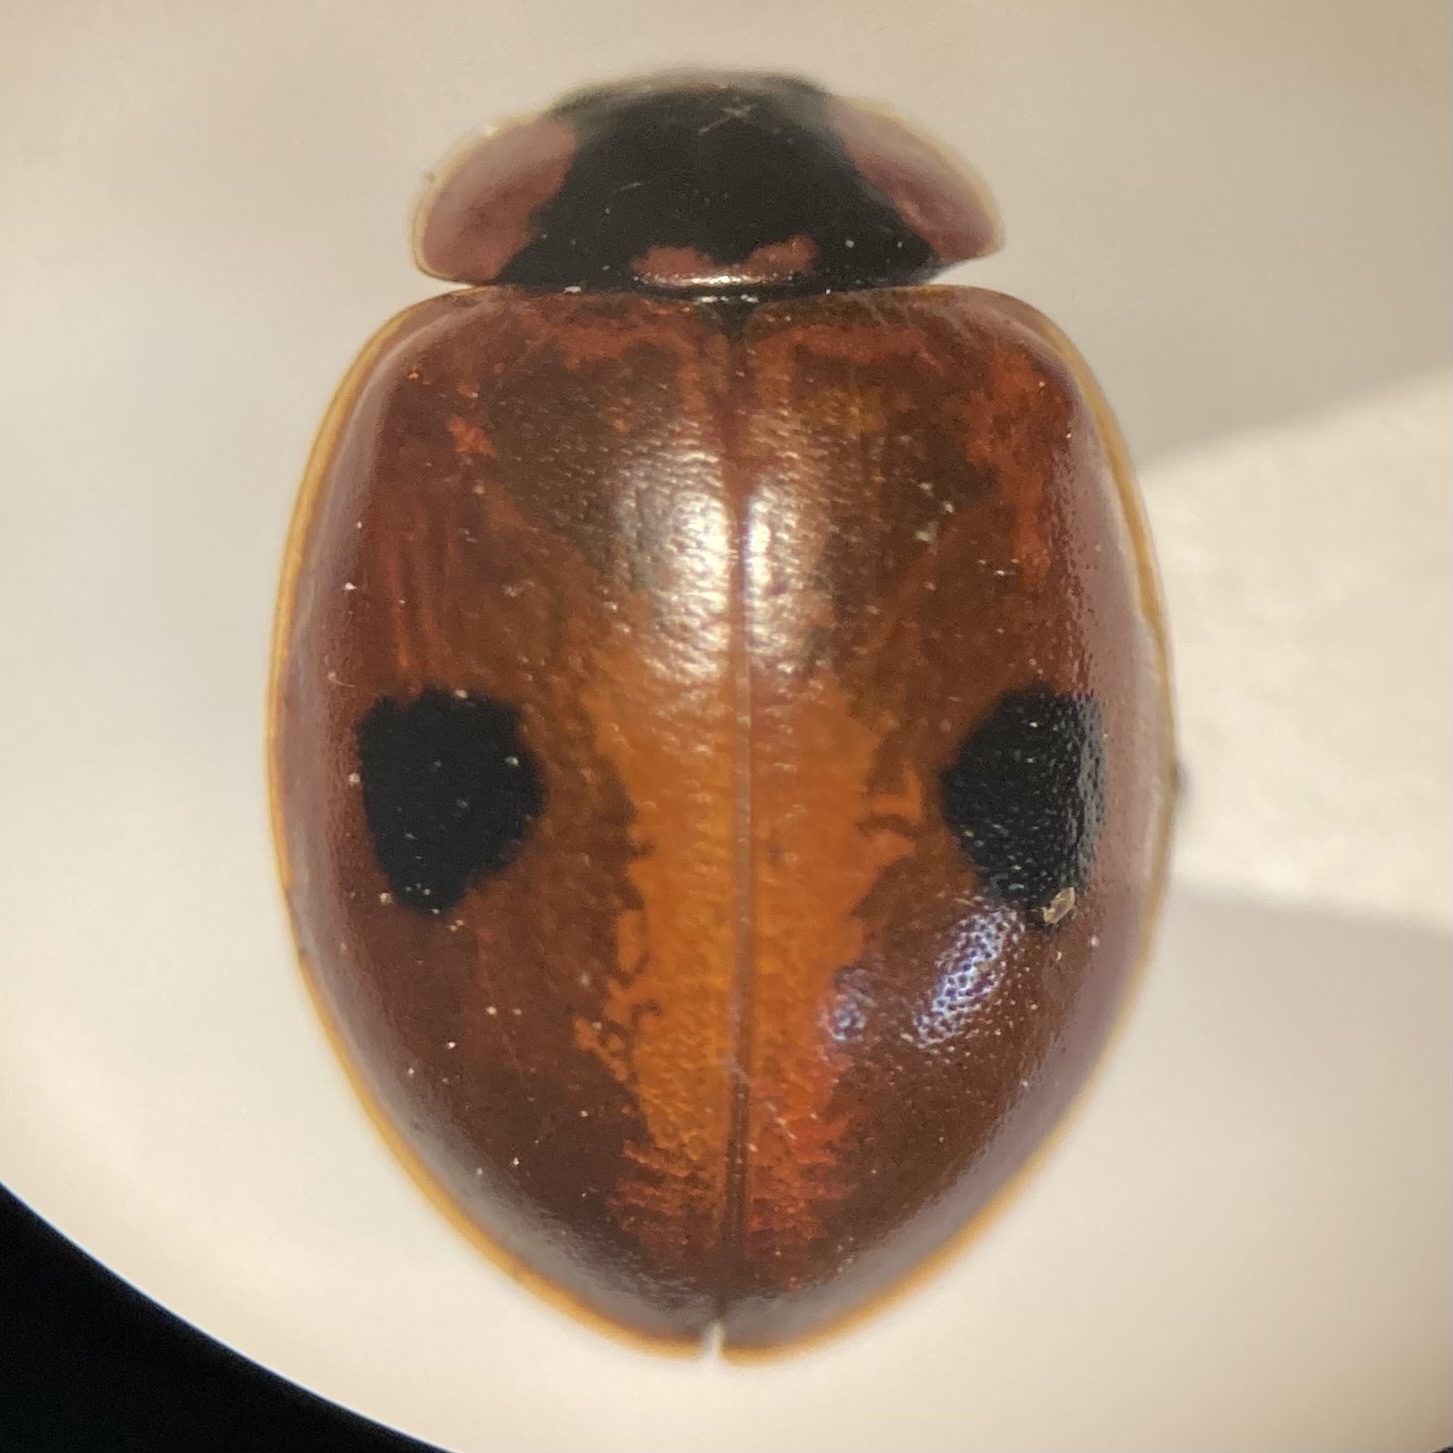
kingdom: Animalia
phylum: Arthropoda
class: Insecta
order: Coleoptera
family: Coccinellidae
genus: Adalia
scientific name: Adalia bipunctata
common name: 2-spot ladybird
